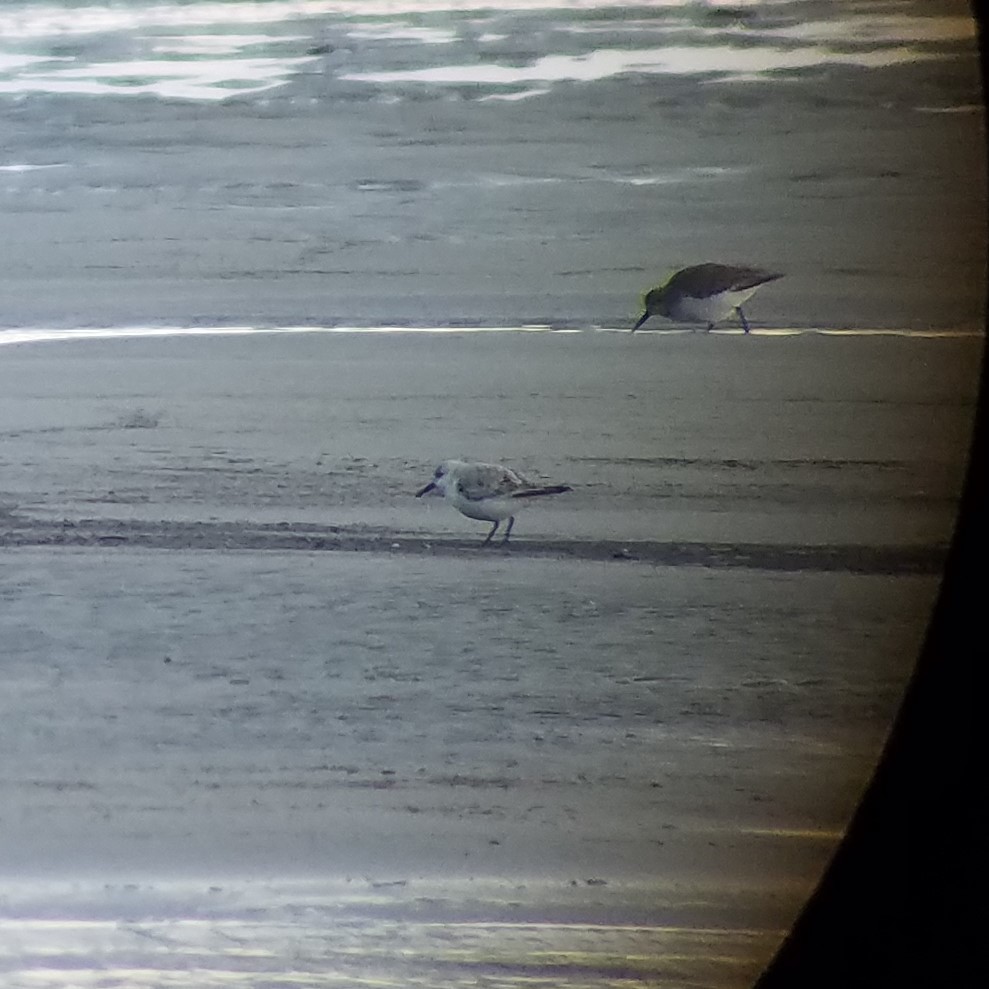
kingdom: Animalia
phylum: Chordata
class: Aves
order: Charadriiformes
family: Scolopacidae
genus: Calidris
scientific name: Calidris alba
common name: Sanderling
